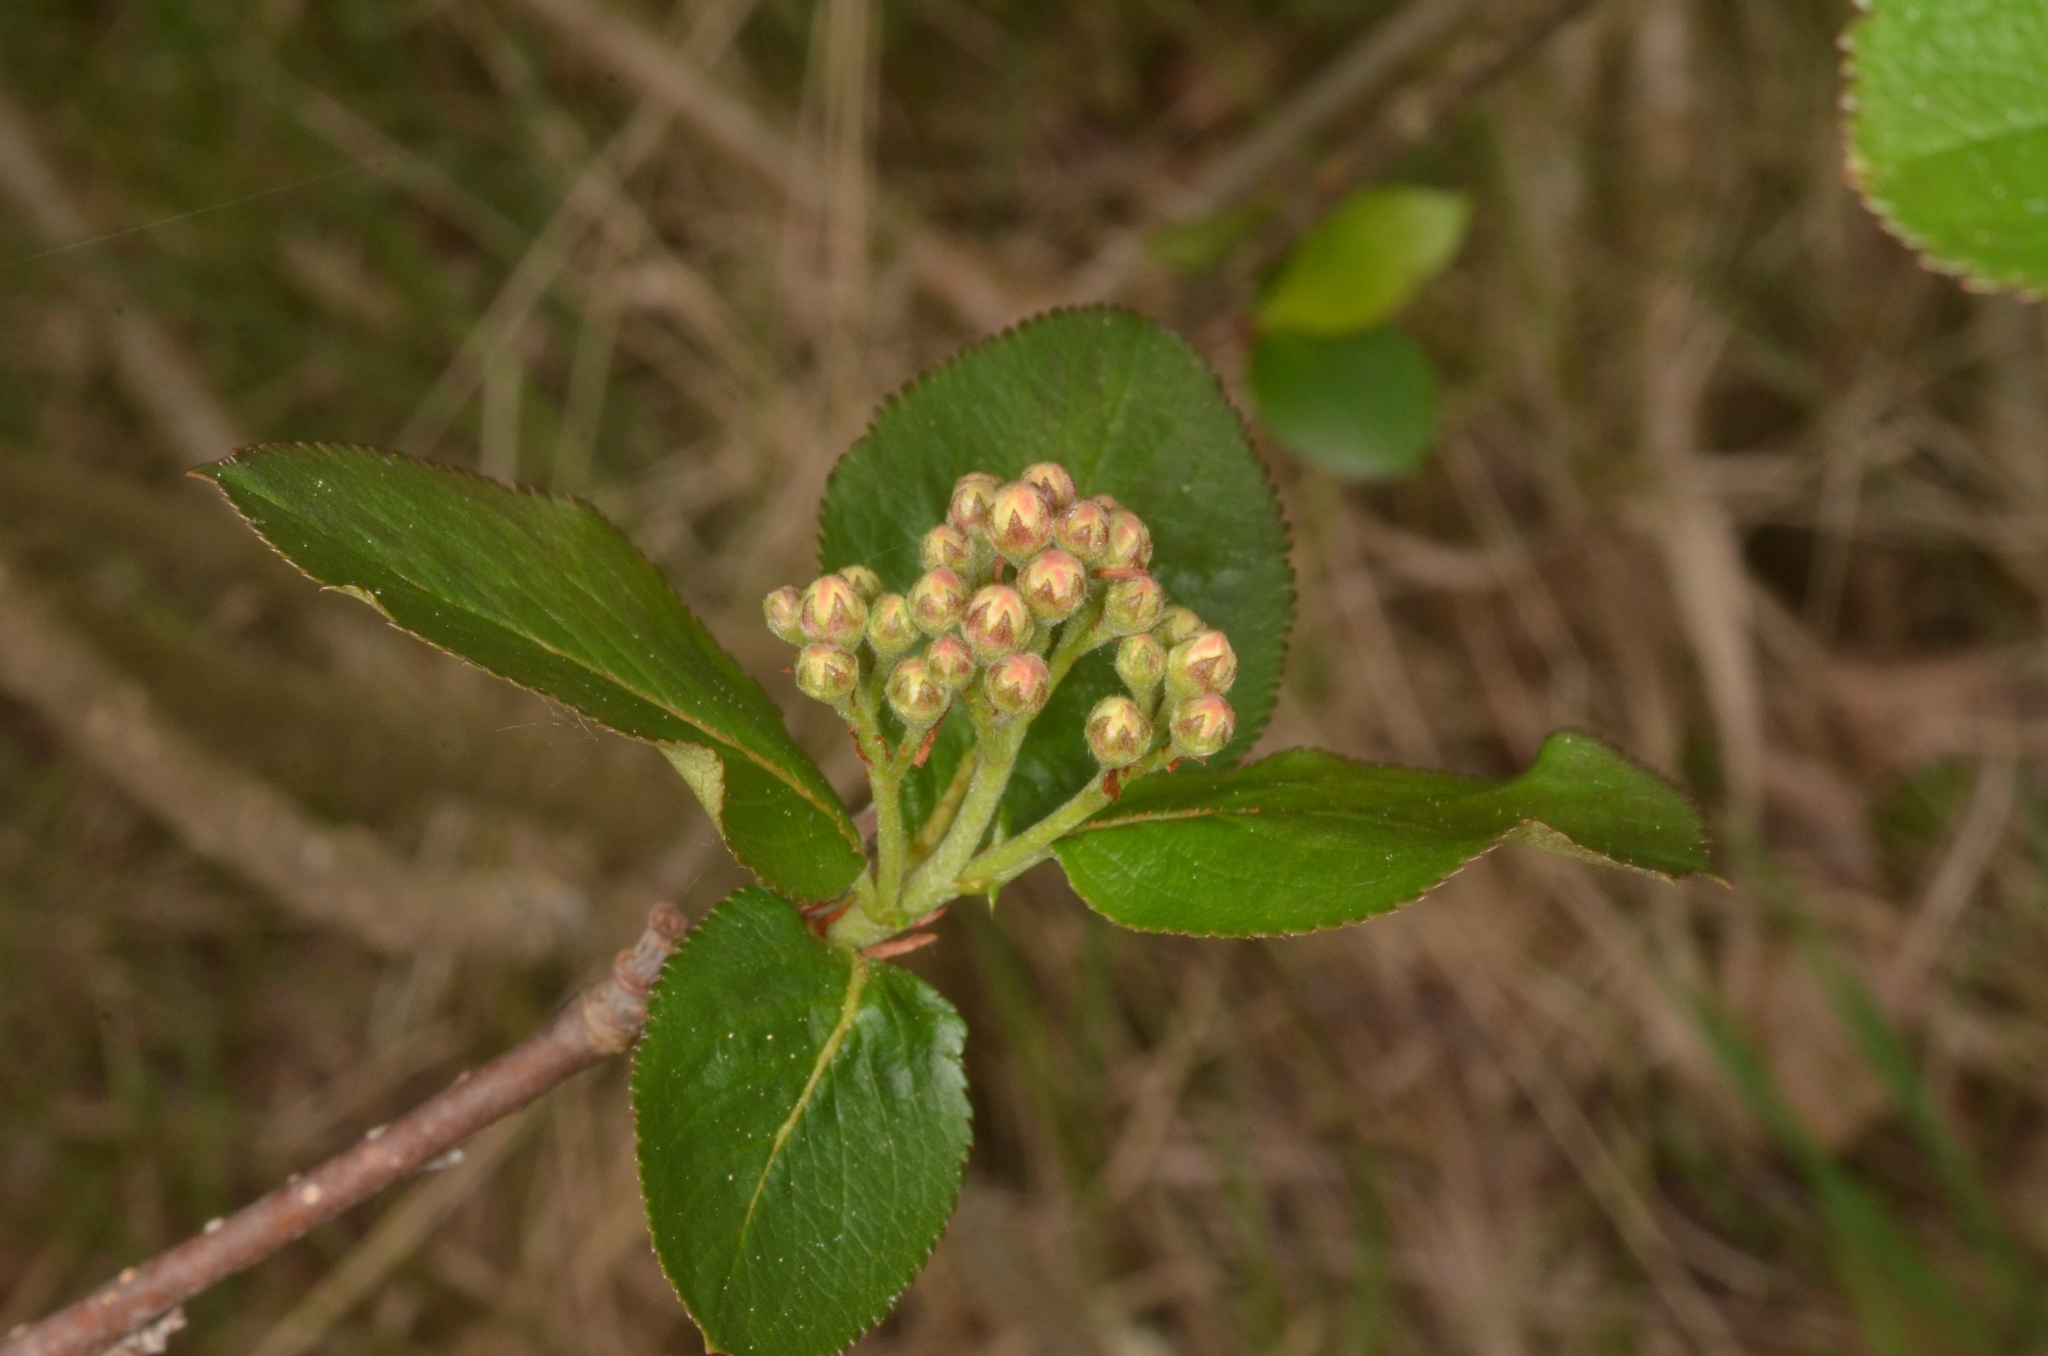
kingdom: Plantae
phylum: Tracheophyta
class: Magnoliopsida
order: Rosales
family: Rosaceae
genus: Sorbaronia
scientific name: Sorbaronia arsenii
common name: Arsène's mountain-ash
